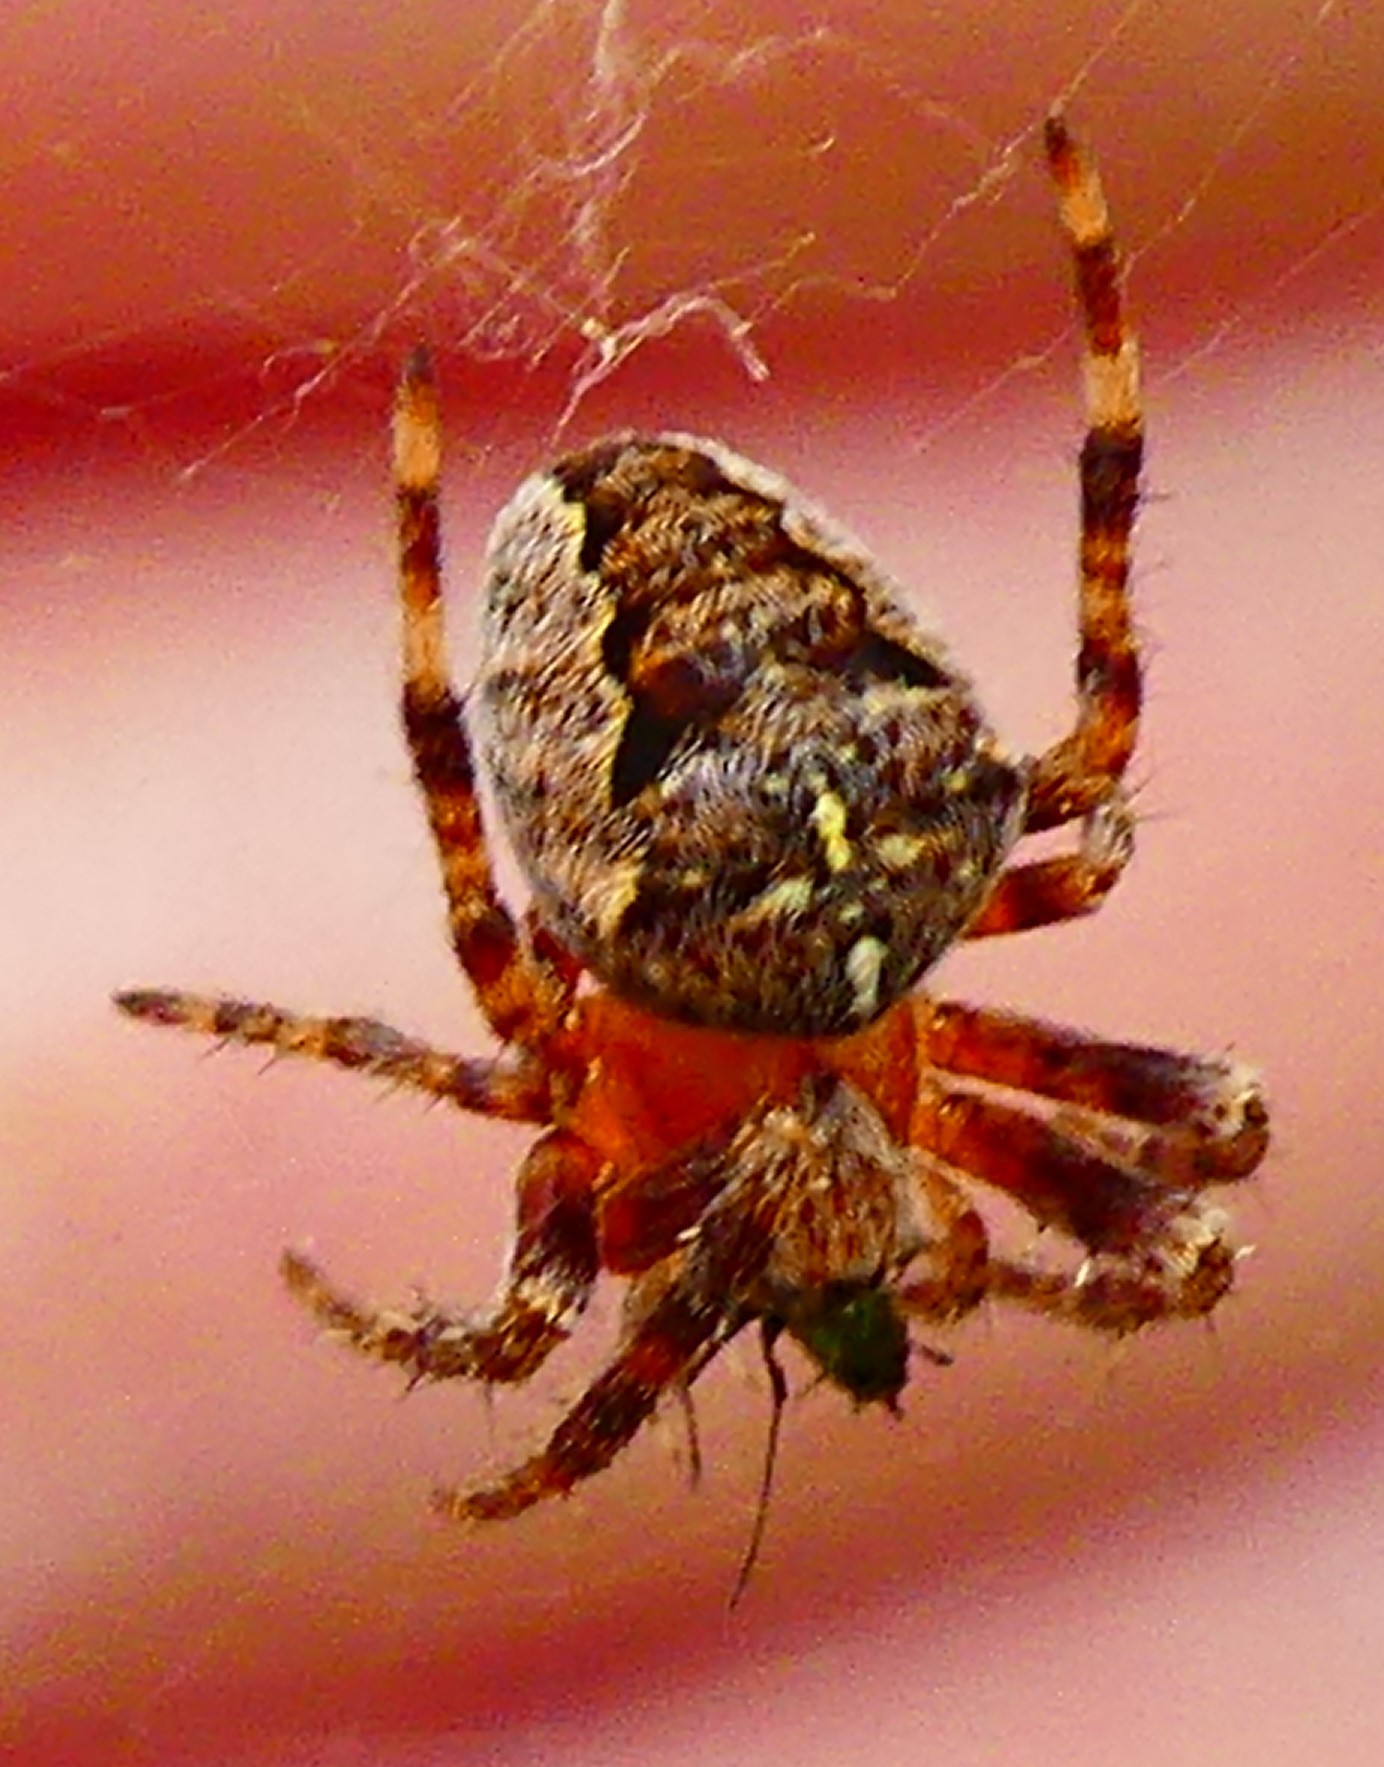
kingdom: Animalia
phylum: Arthropoda
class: Arachnida
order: Araneae
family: Araneidae
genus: Araneus
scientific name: Araneus diadematus
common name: Cross orbweaver
